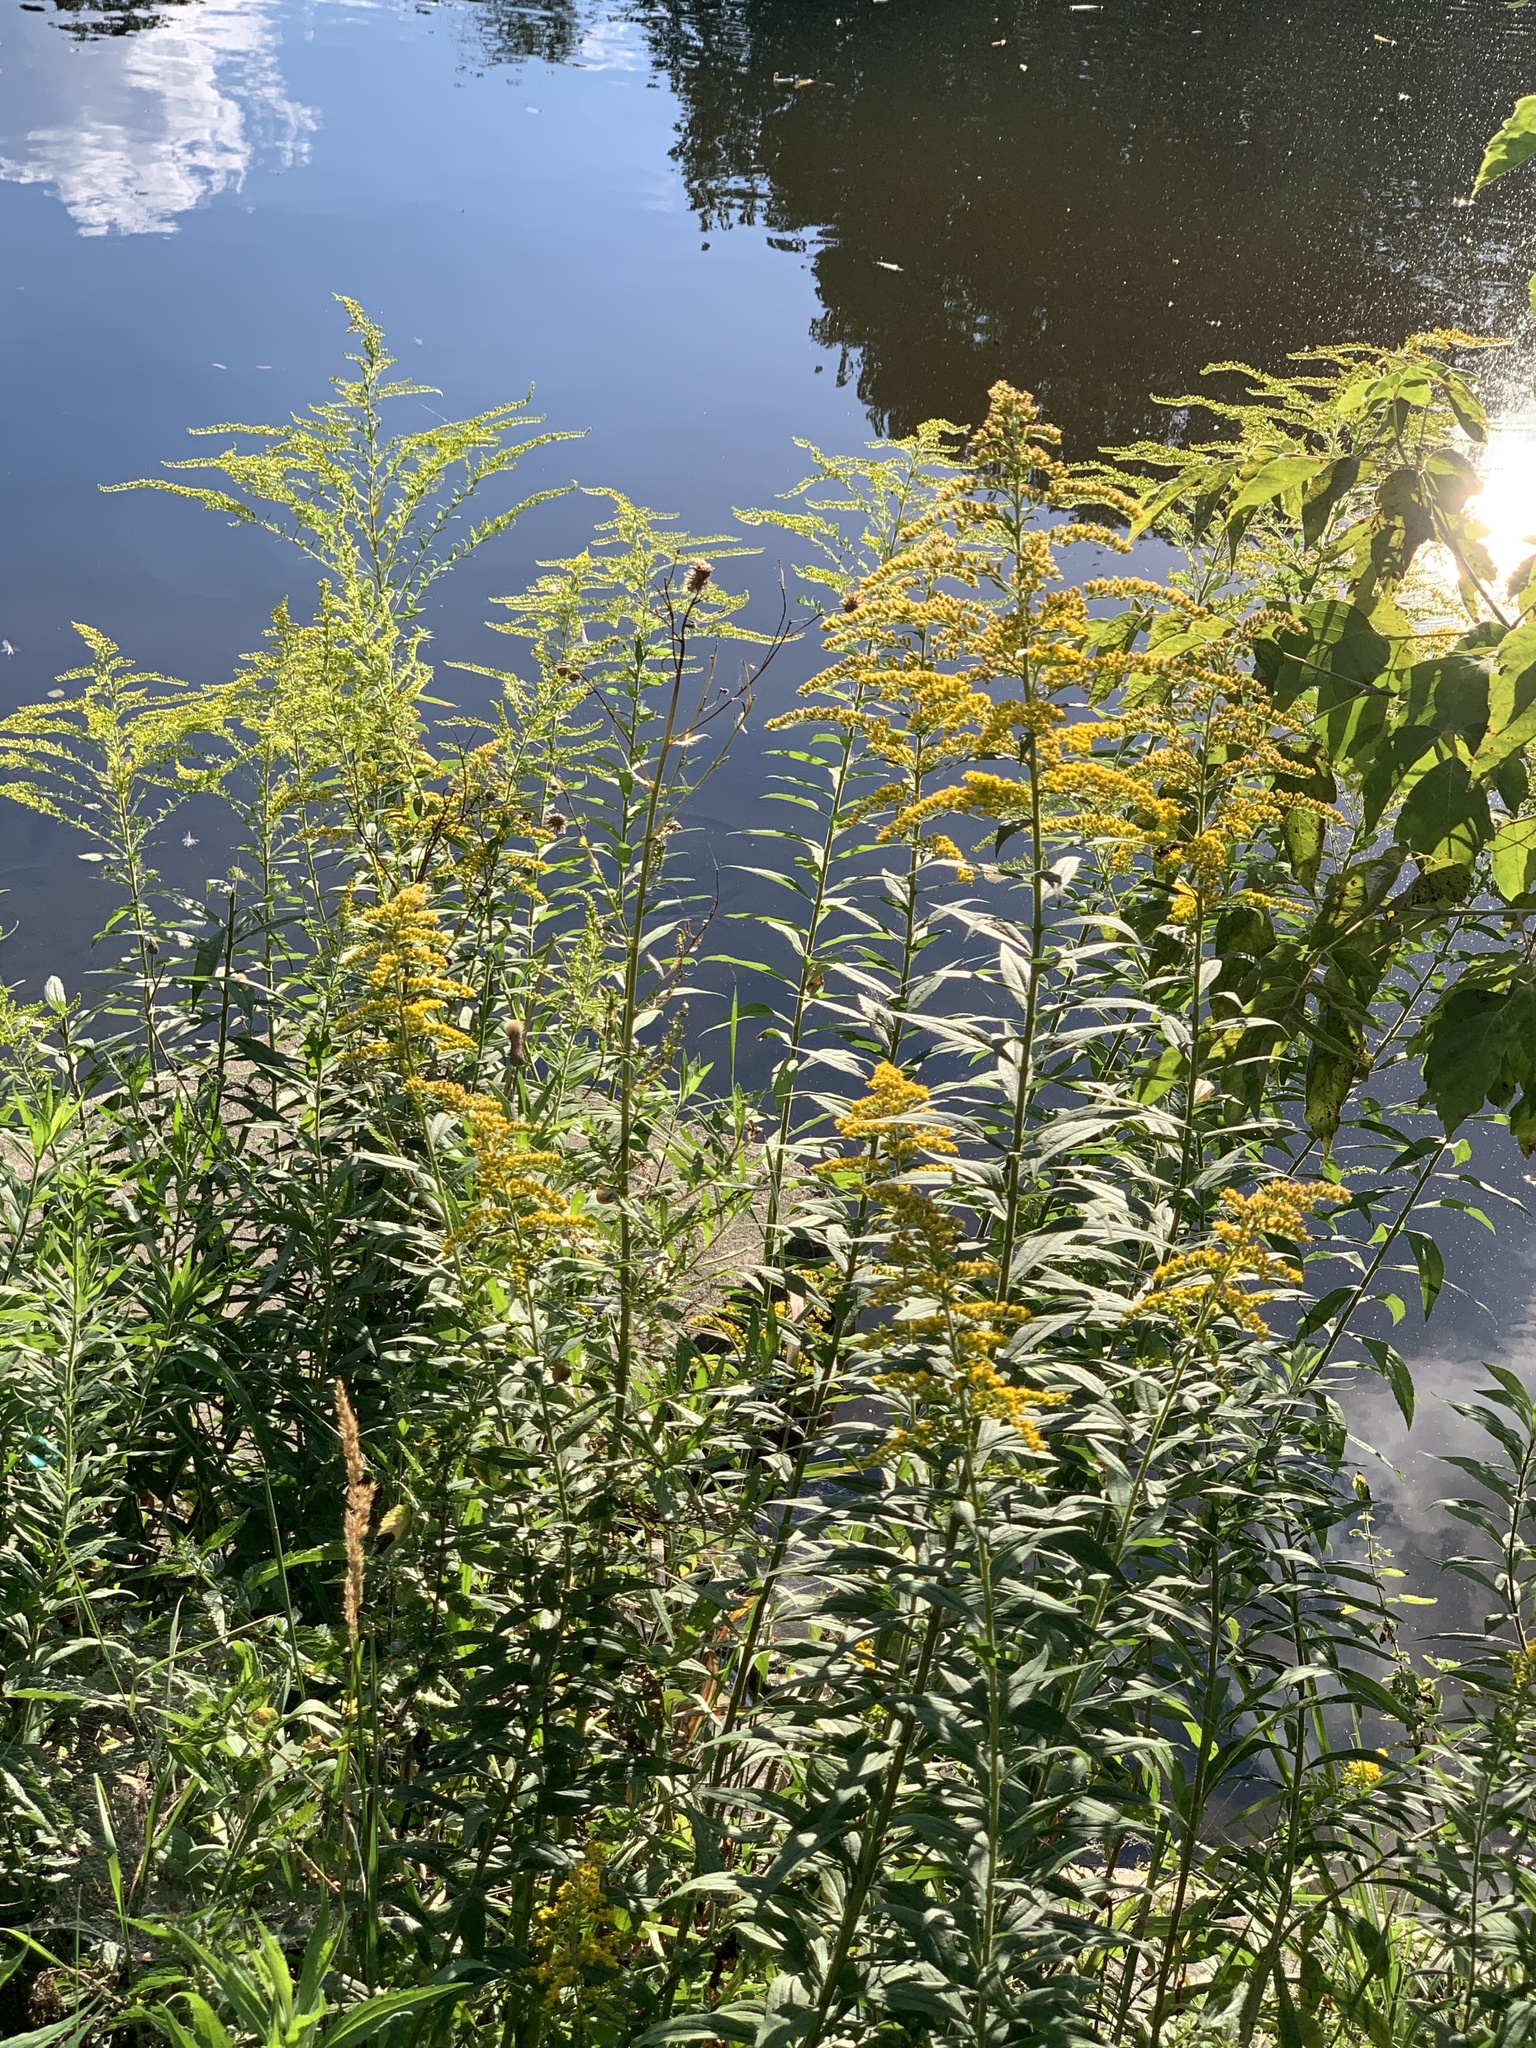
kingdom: Plantae
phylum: Tracheophyta
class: Magnoliopsida
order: Asterales
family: Asteraceae
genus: Solidago
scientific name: Solidago canadensis
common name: Canada goldenrod
